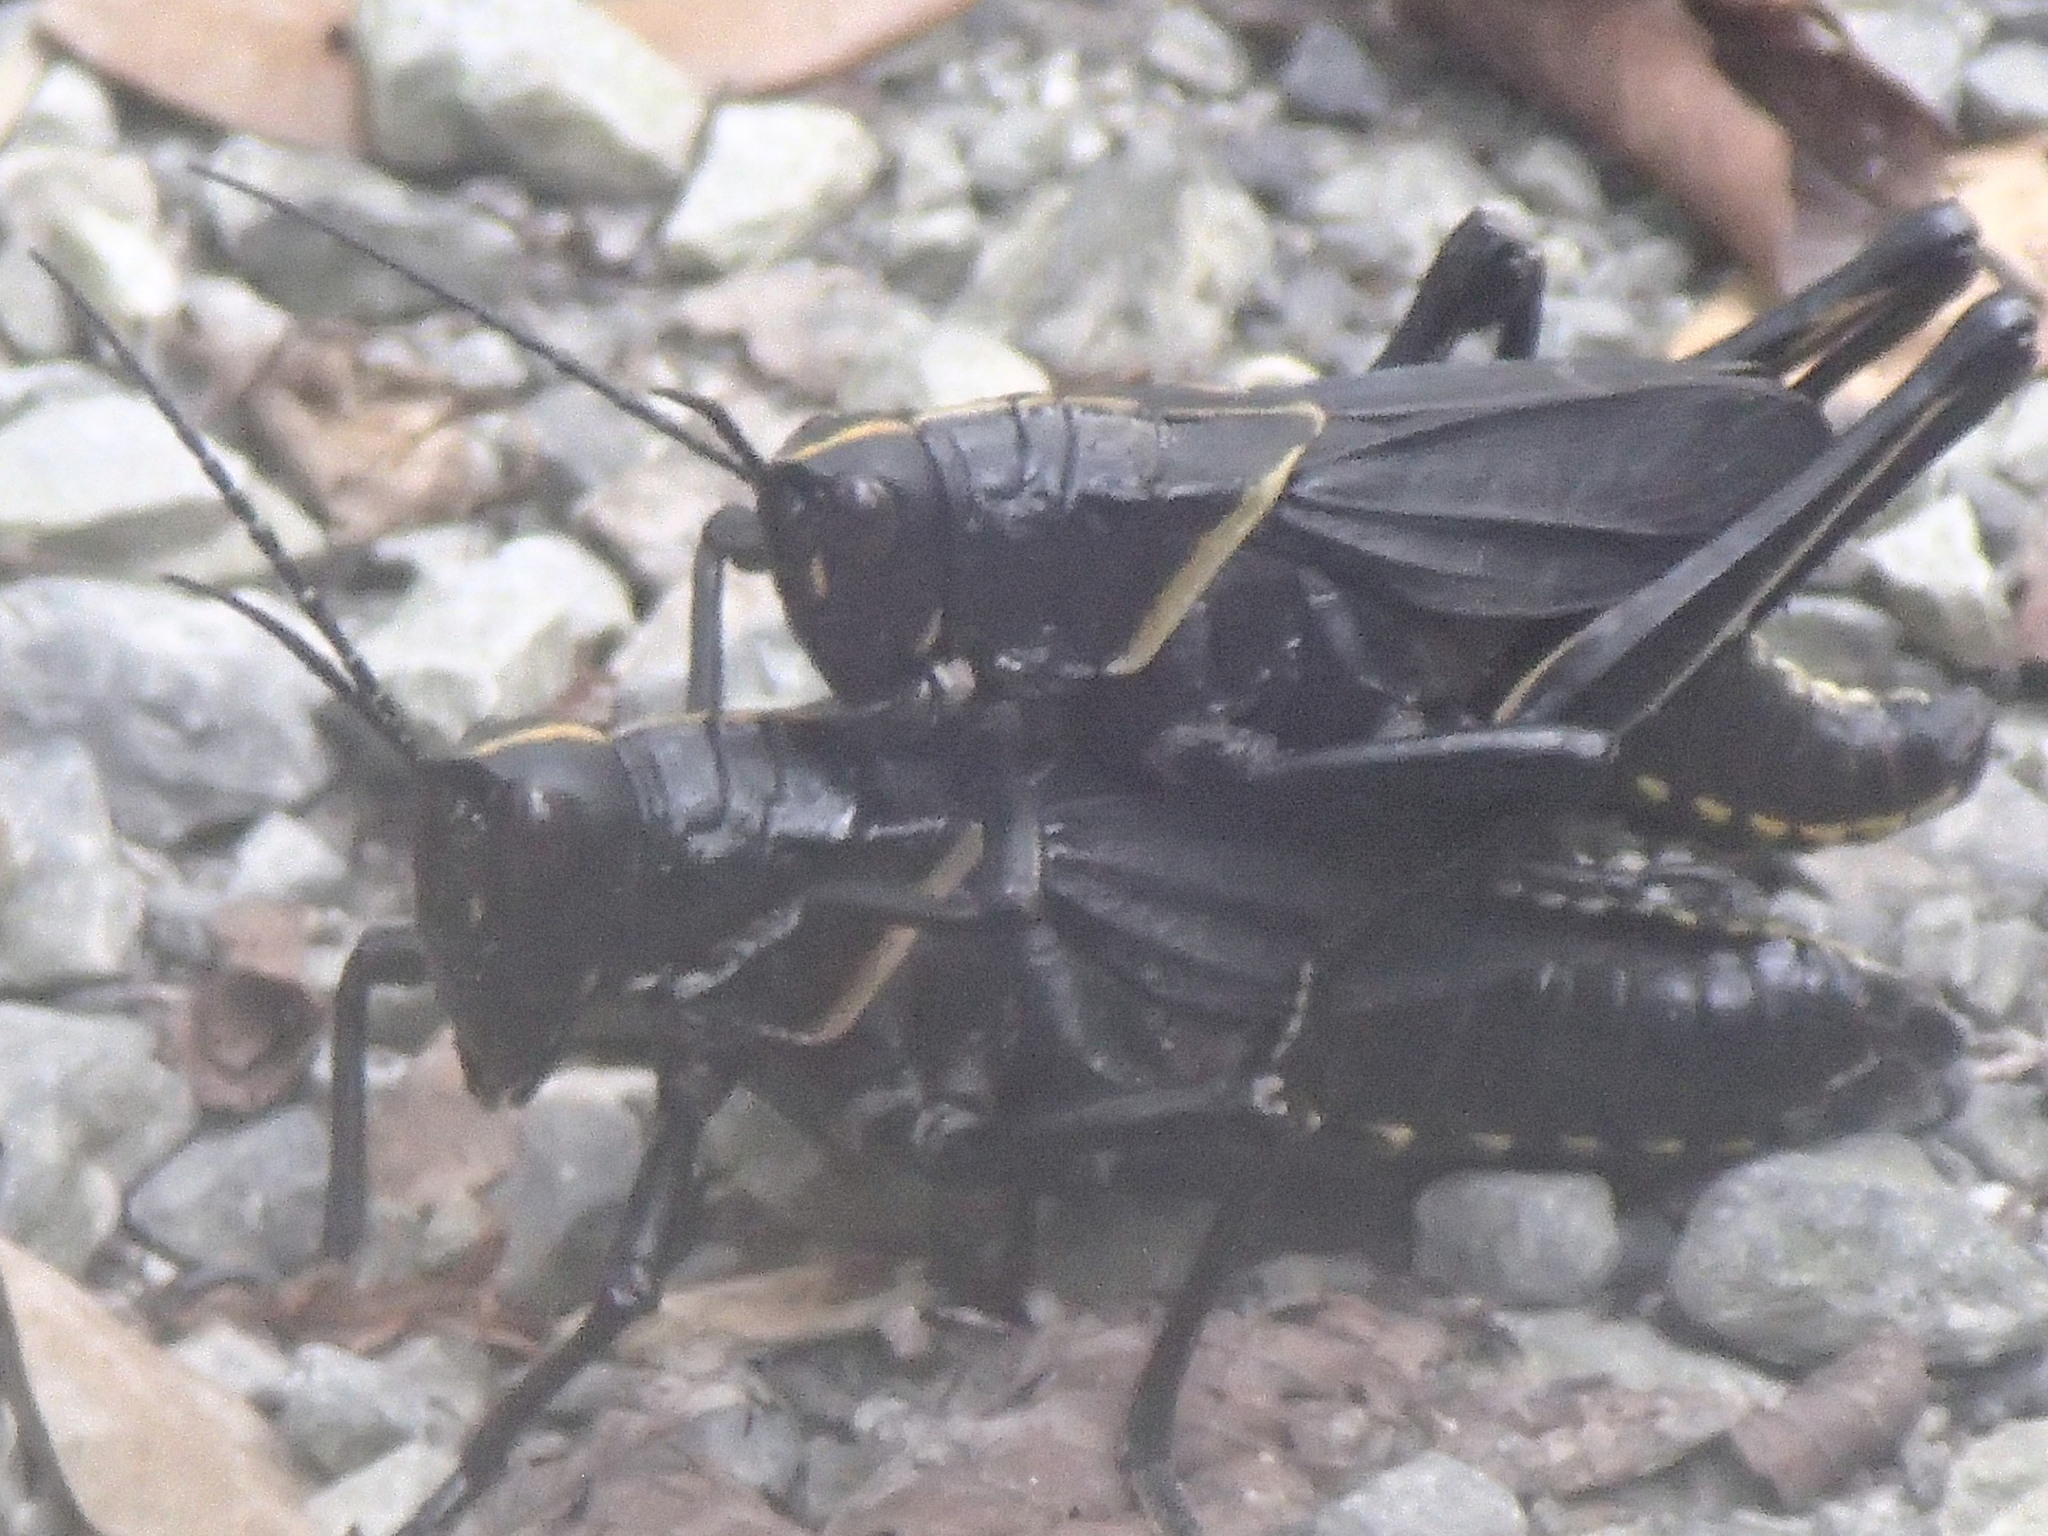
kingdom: Animalia
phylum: Arthropoda
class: Insecta
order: Orthoptera
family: Romaleidae
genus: Romalea
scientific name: Romalea microptera
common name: Eastern lubber grasshopper
